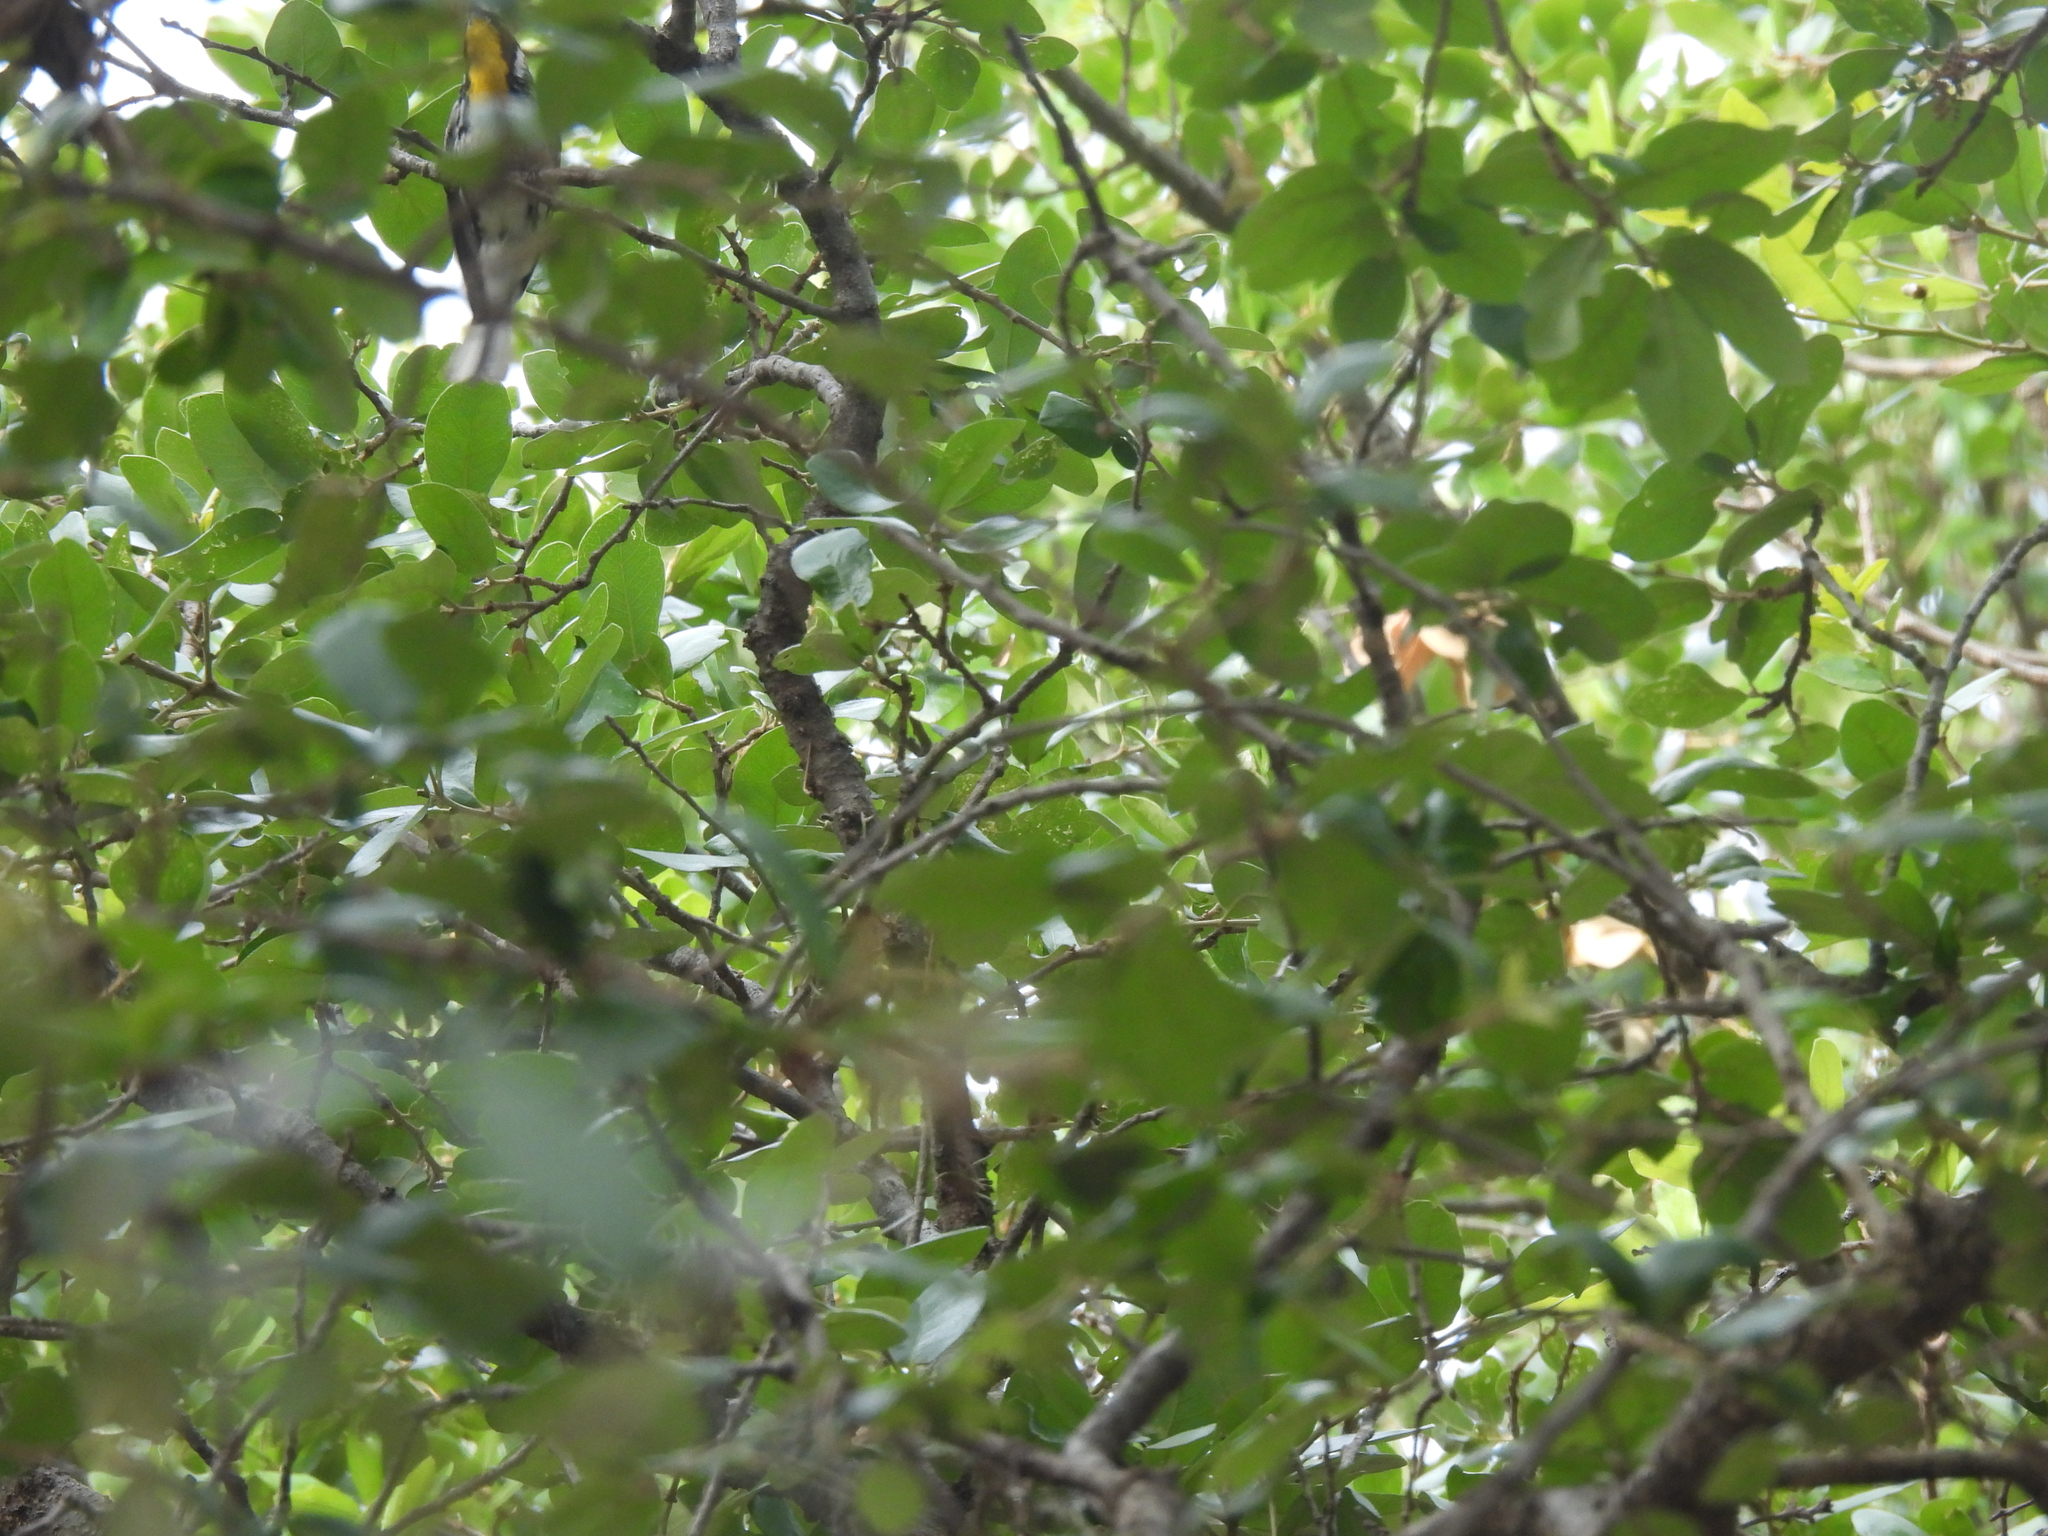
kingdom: Animalia
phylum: Chordata
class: Aves
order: Passeriformes
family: Parulidae
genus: Setophaga
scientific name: Setophaga dominica
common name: Yellow-throated warbler
